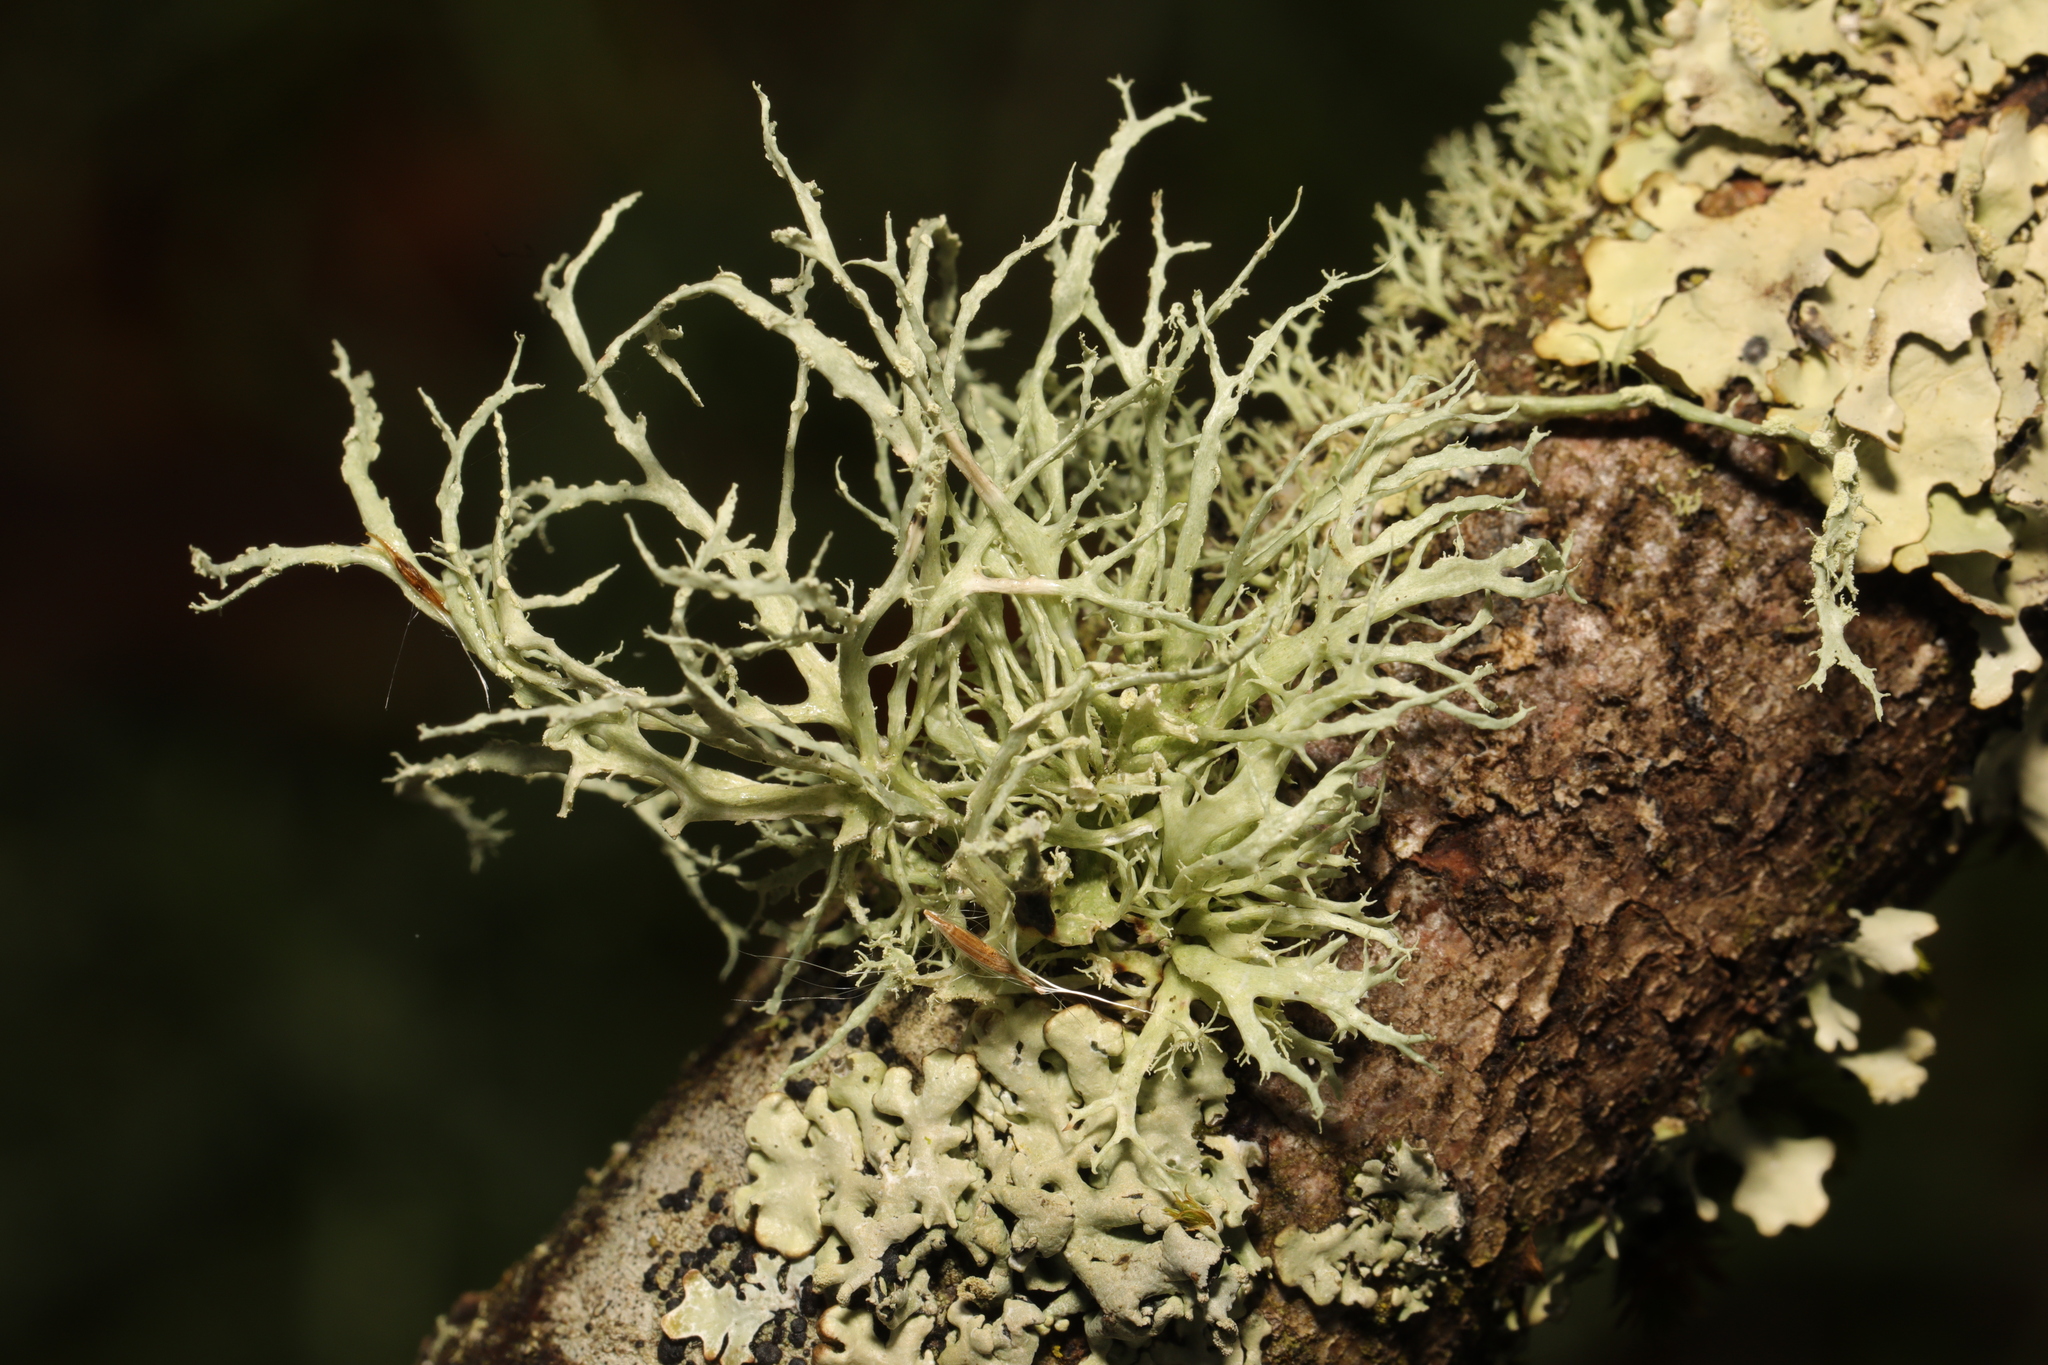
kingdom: Fungi
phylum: Ascomycota
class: Lecanoromycetes
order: Lecanorales
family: Ramalinaceae
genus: Ramalina
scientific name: Ramalina farinacea
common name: Farinose cartilage lichen
